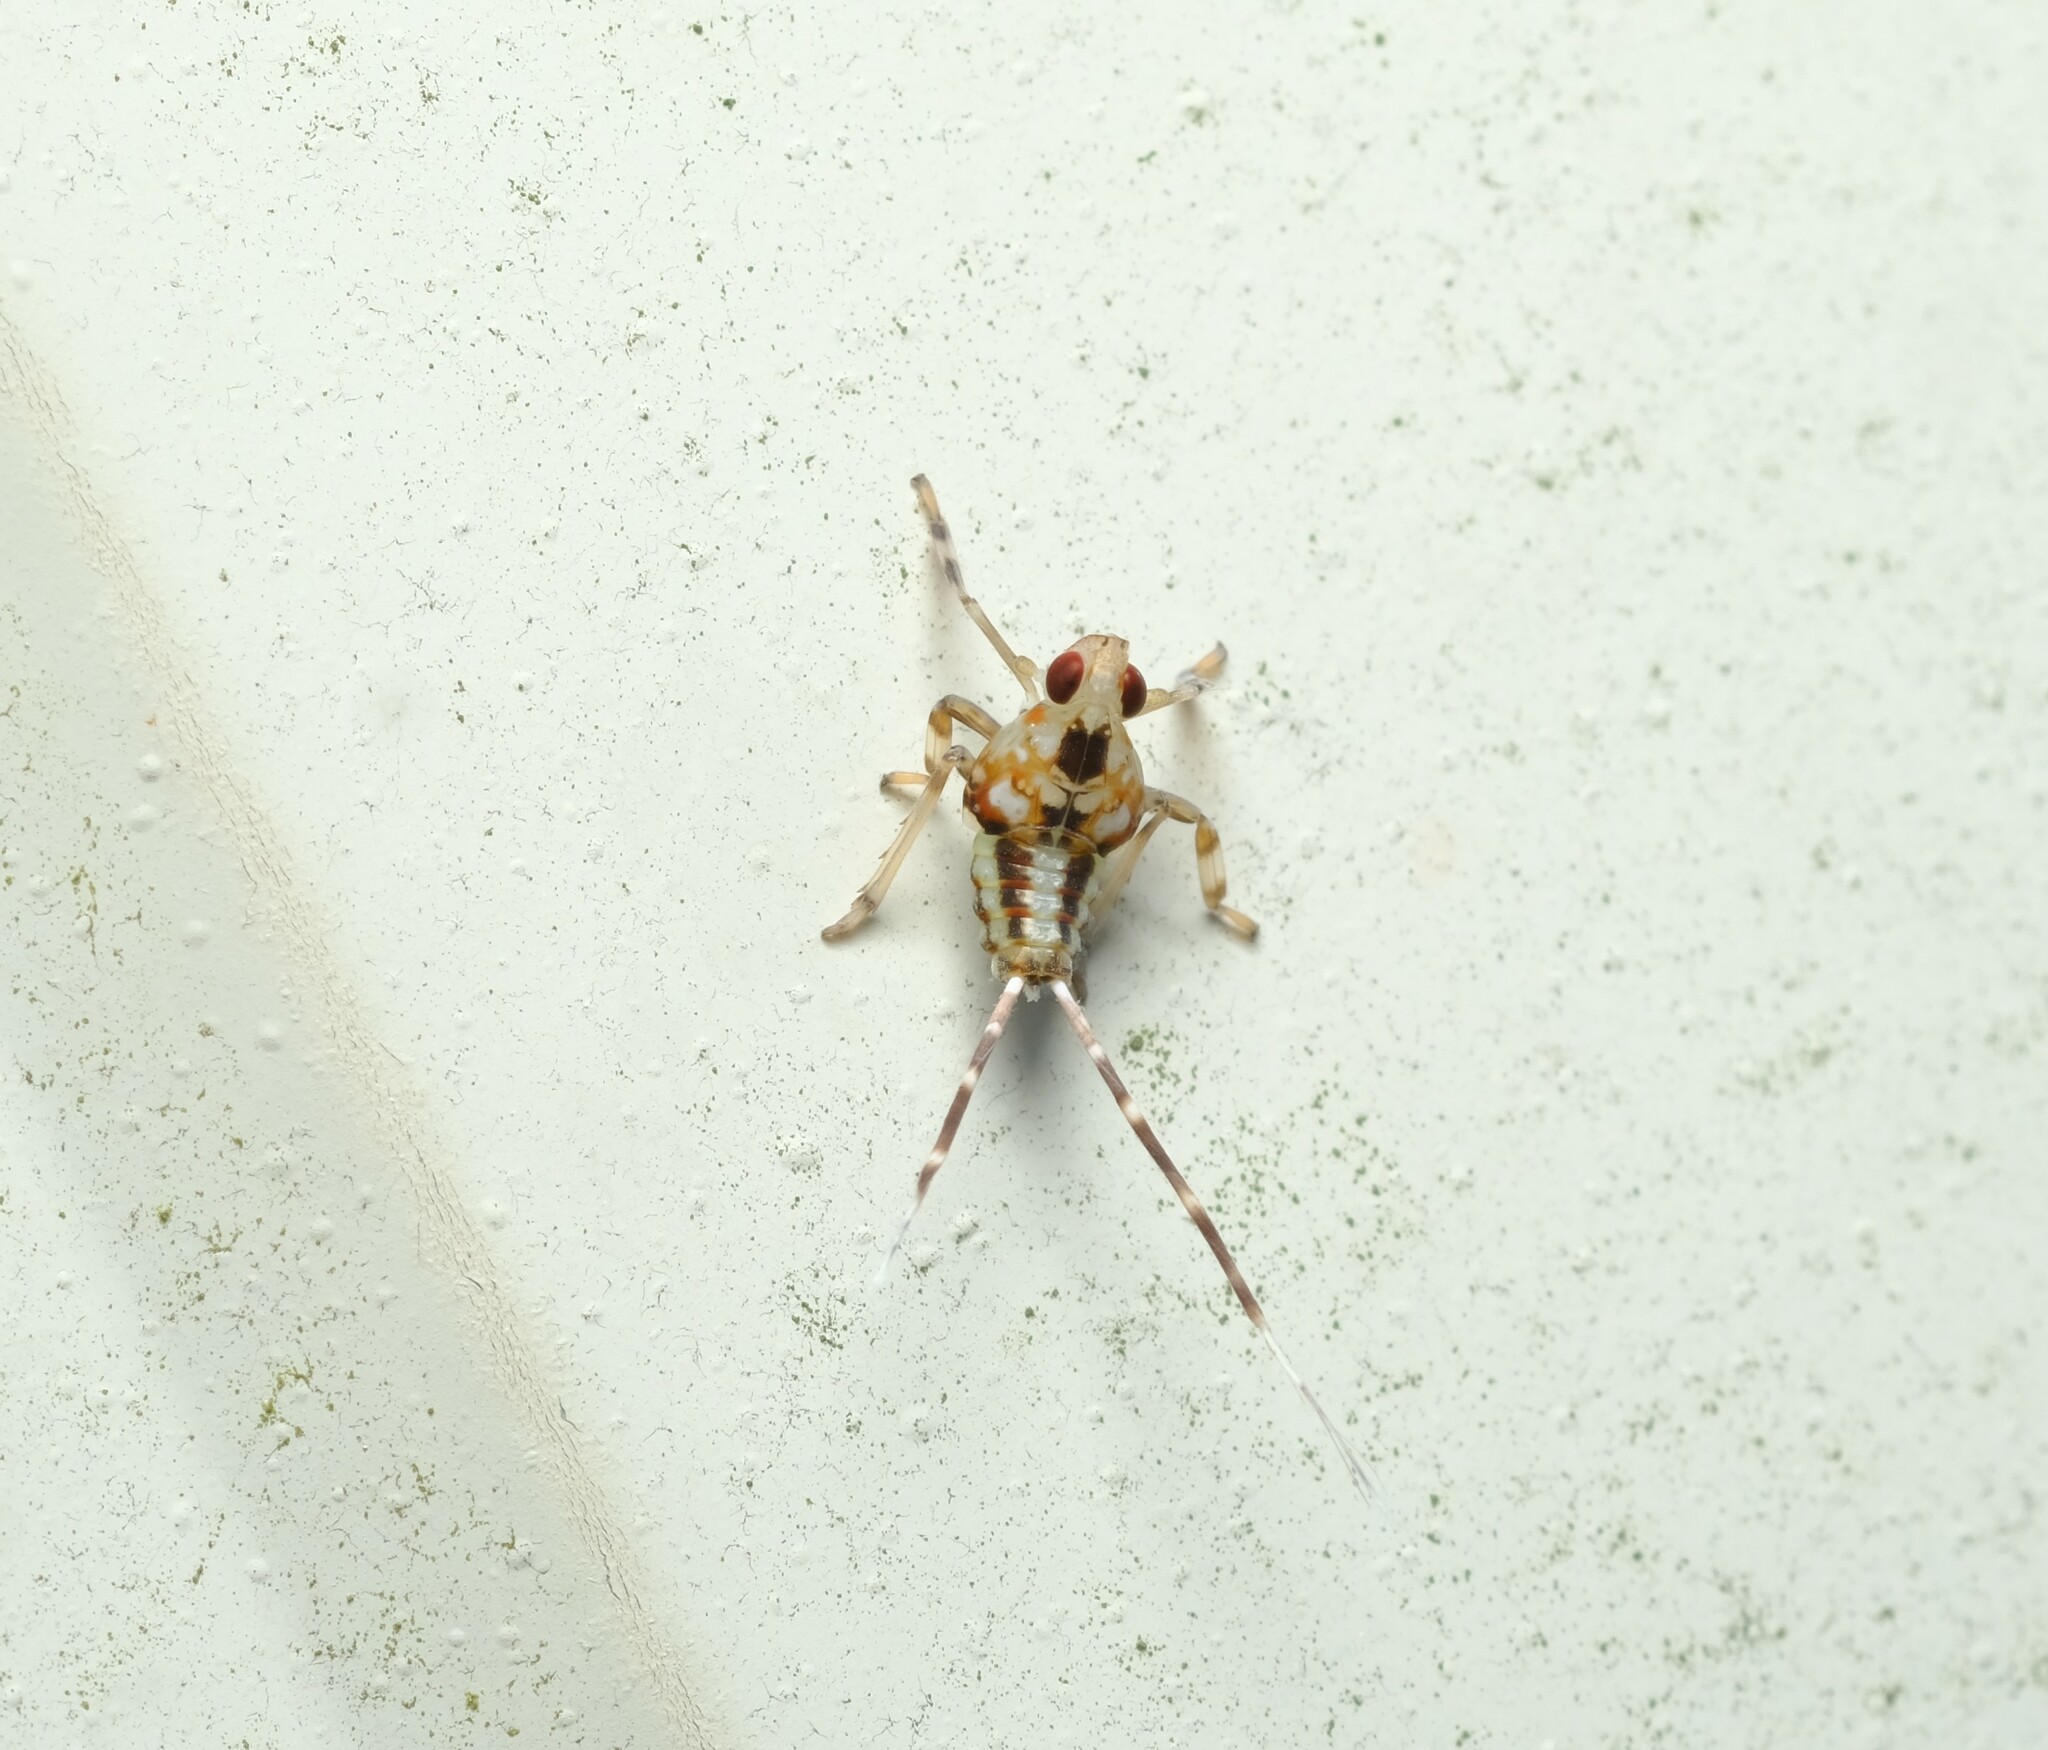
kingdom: Animalia
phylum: Arthropoda
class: Insecta
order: Hemiptera
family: Lophopidae
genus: Magia
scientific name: Magia subocellata
